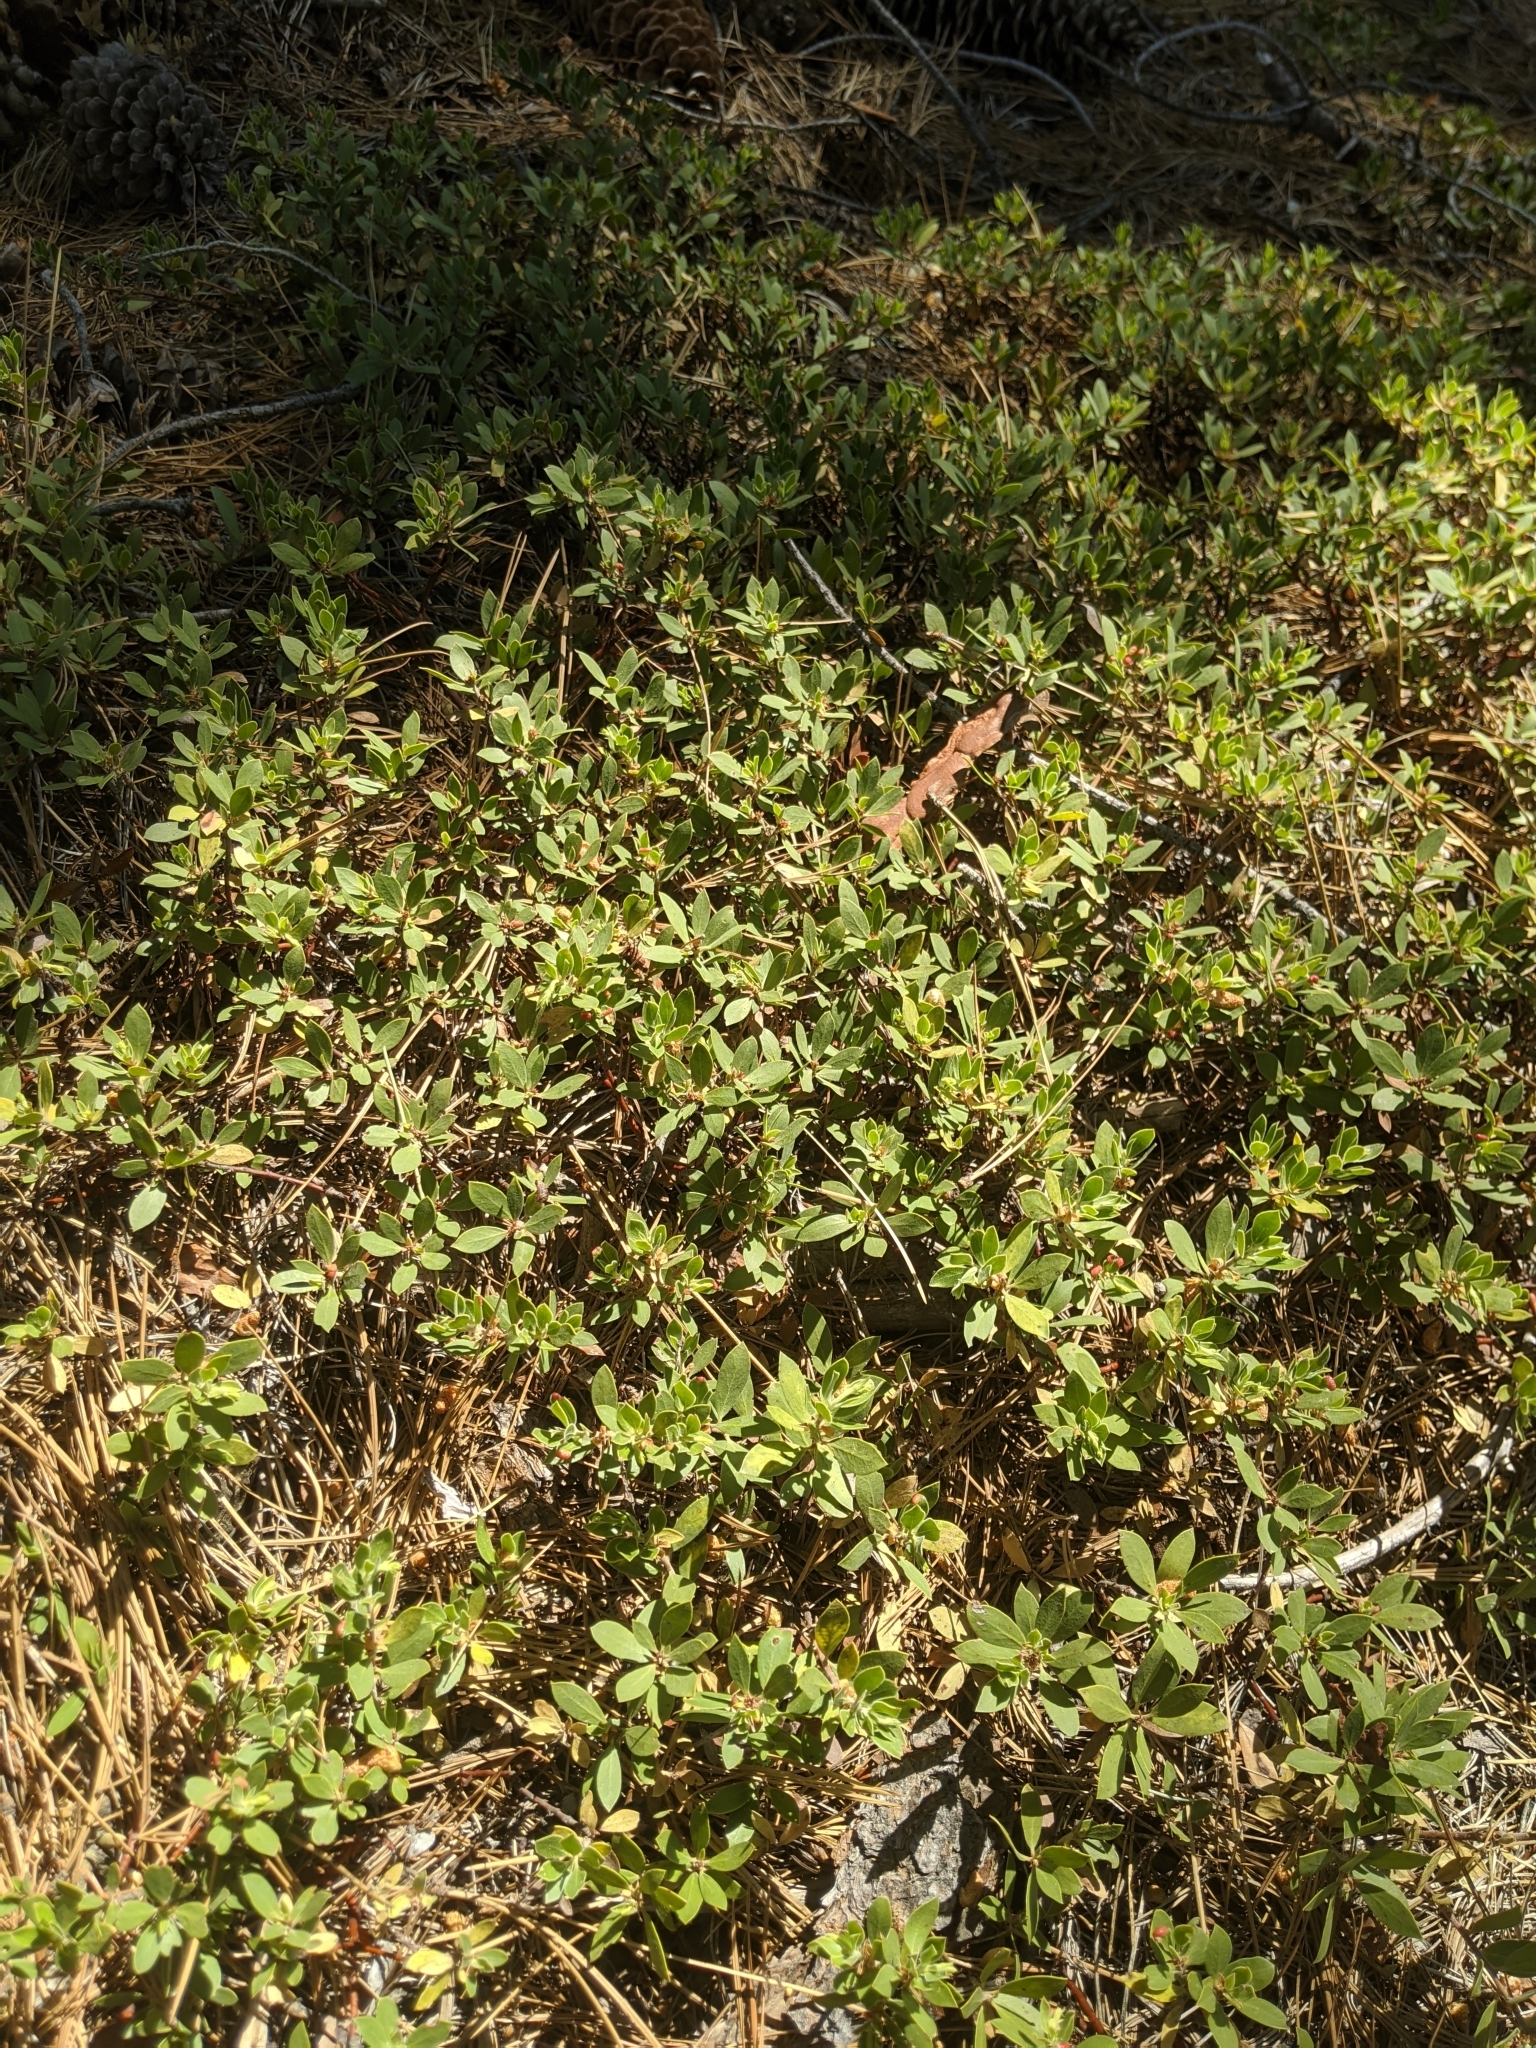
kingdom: Plantae
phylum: Tracheophyta
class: Magnoliopsida
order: Ericales
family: Ericaceae
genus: Arctostaphylos
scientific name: Arctostaphylos nevadensis
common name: Pinemat manzanita
